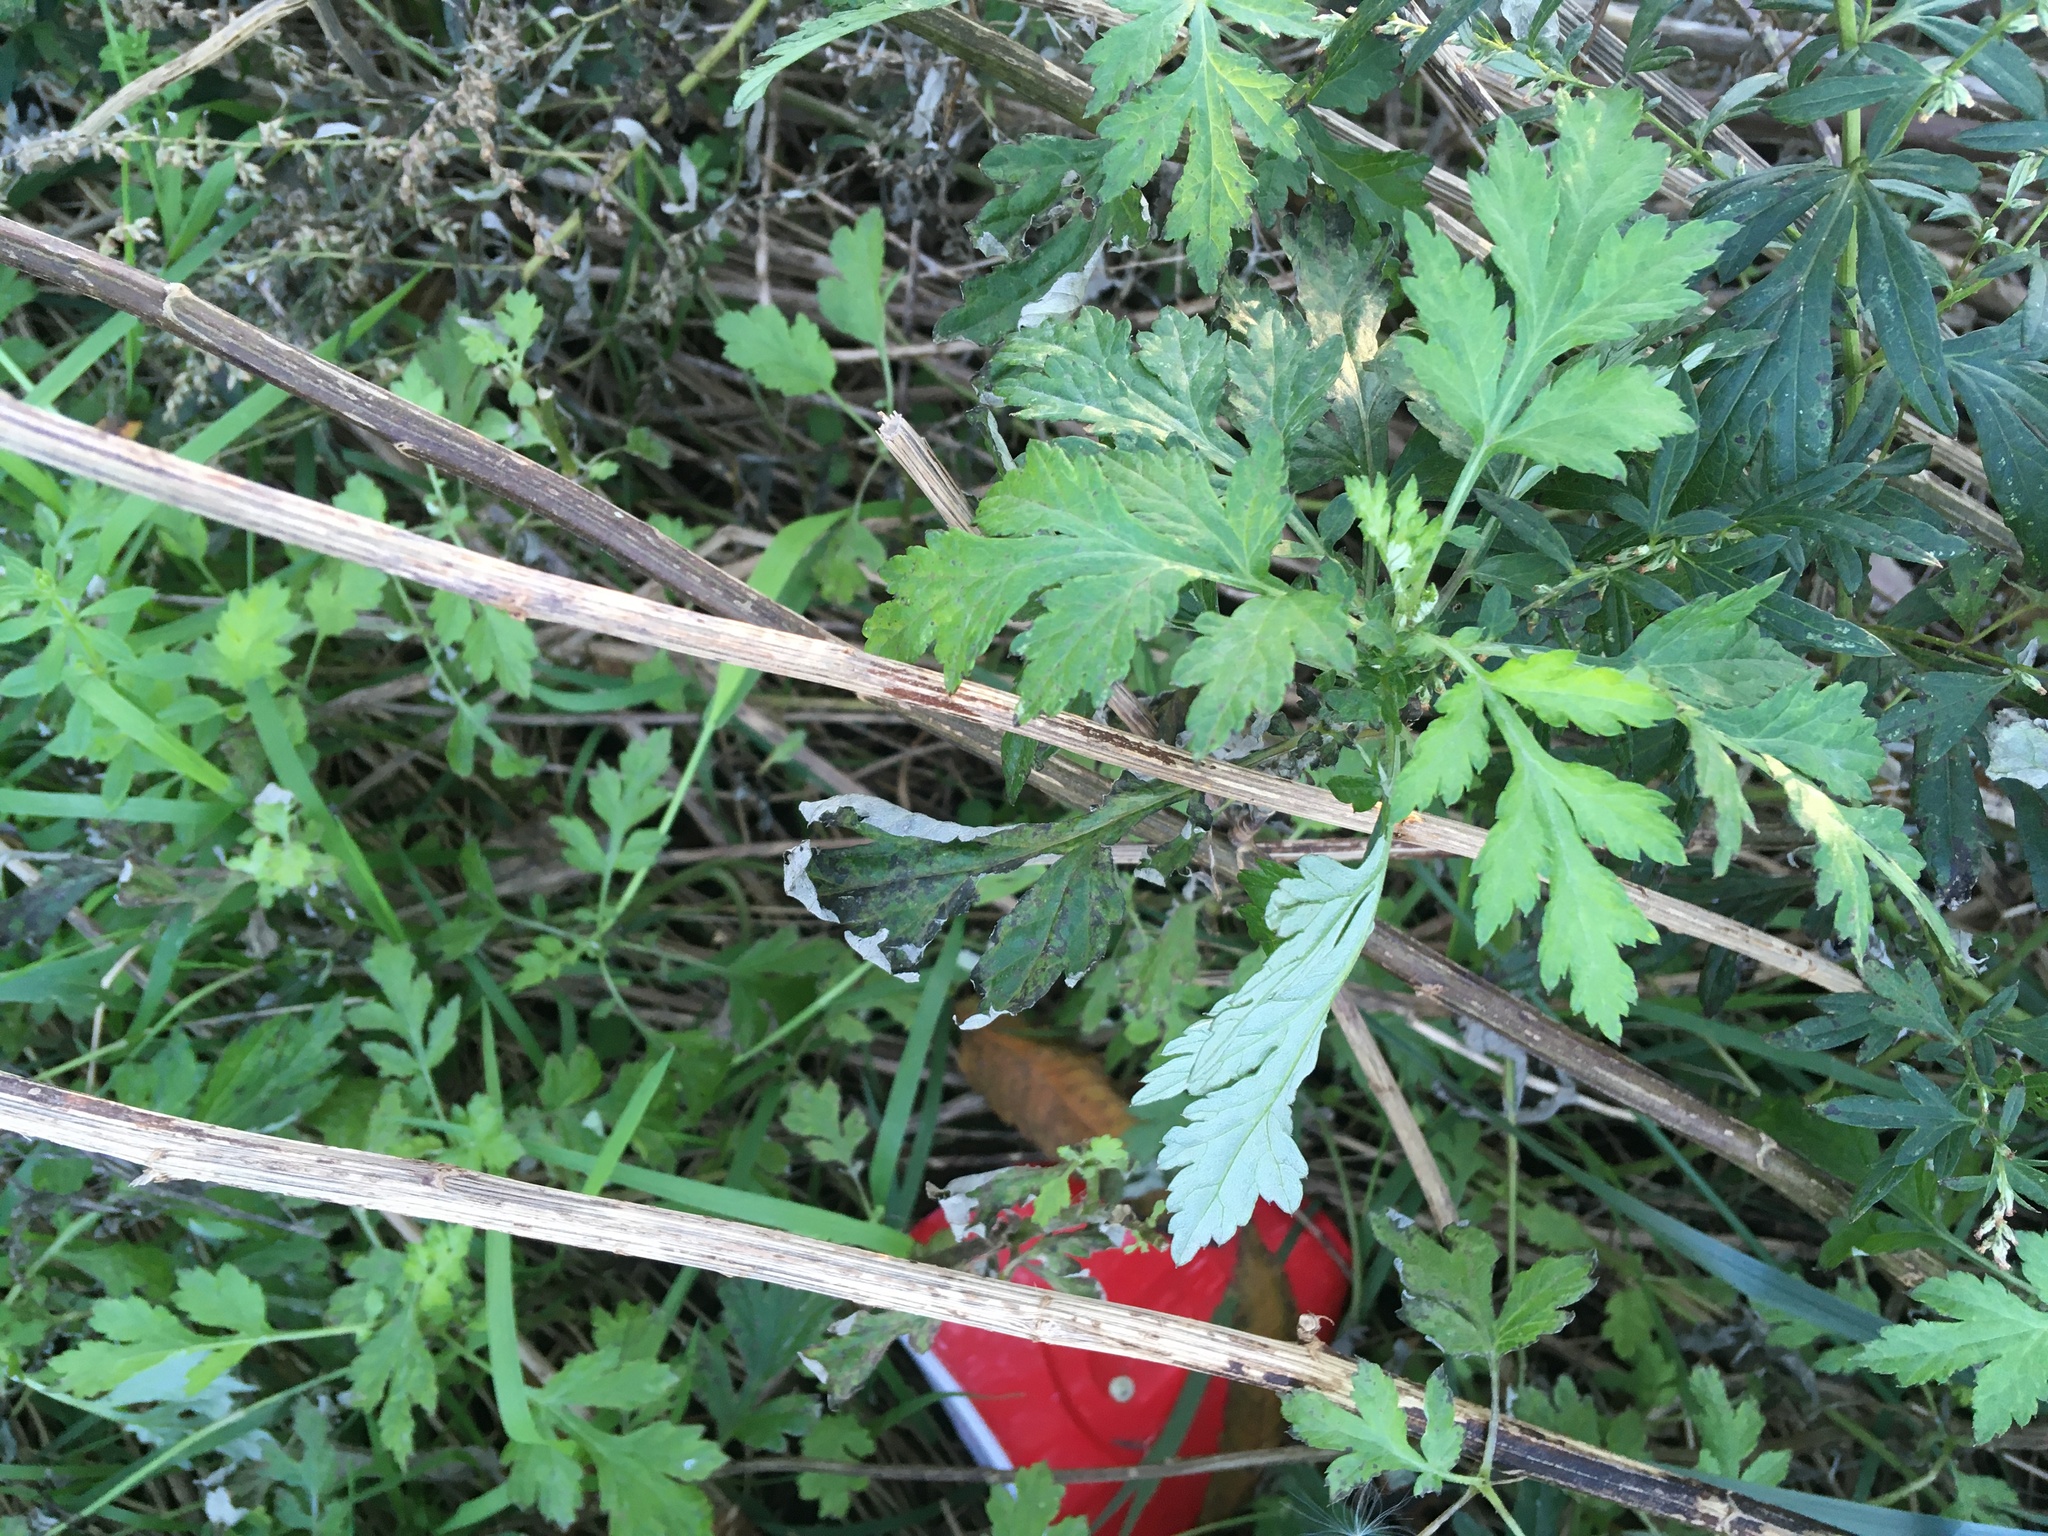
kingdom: Plantae
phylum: Tracheophyta
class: Magnoliopsida
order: Asterales
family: Asteraceae
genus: Artemisia
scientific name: Artemisia vulgaris
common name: Mugwort
